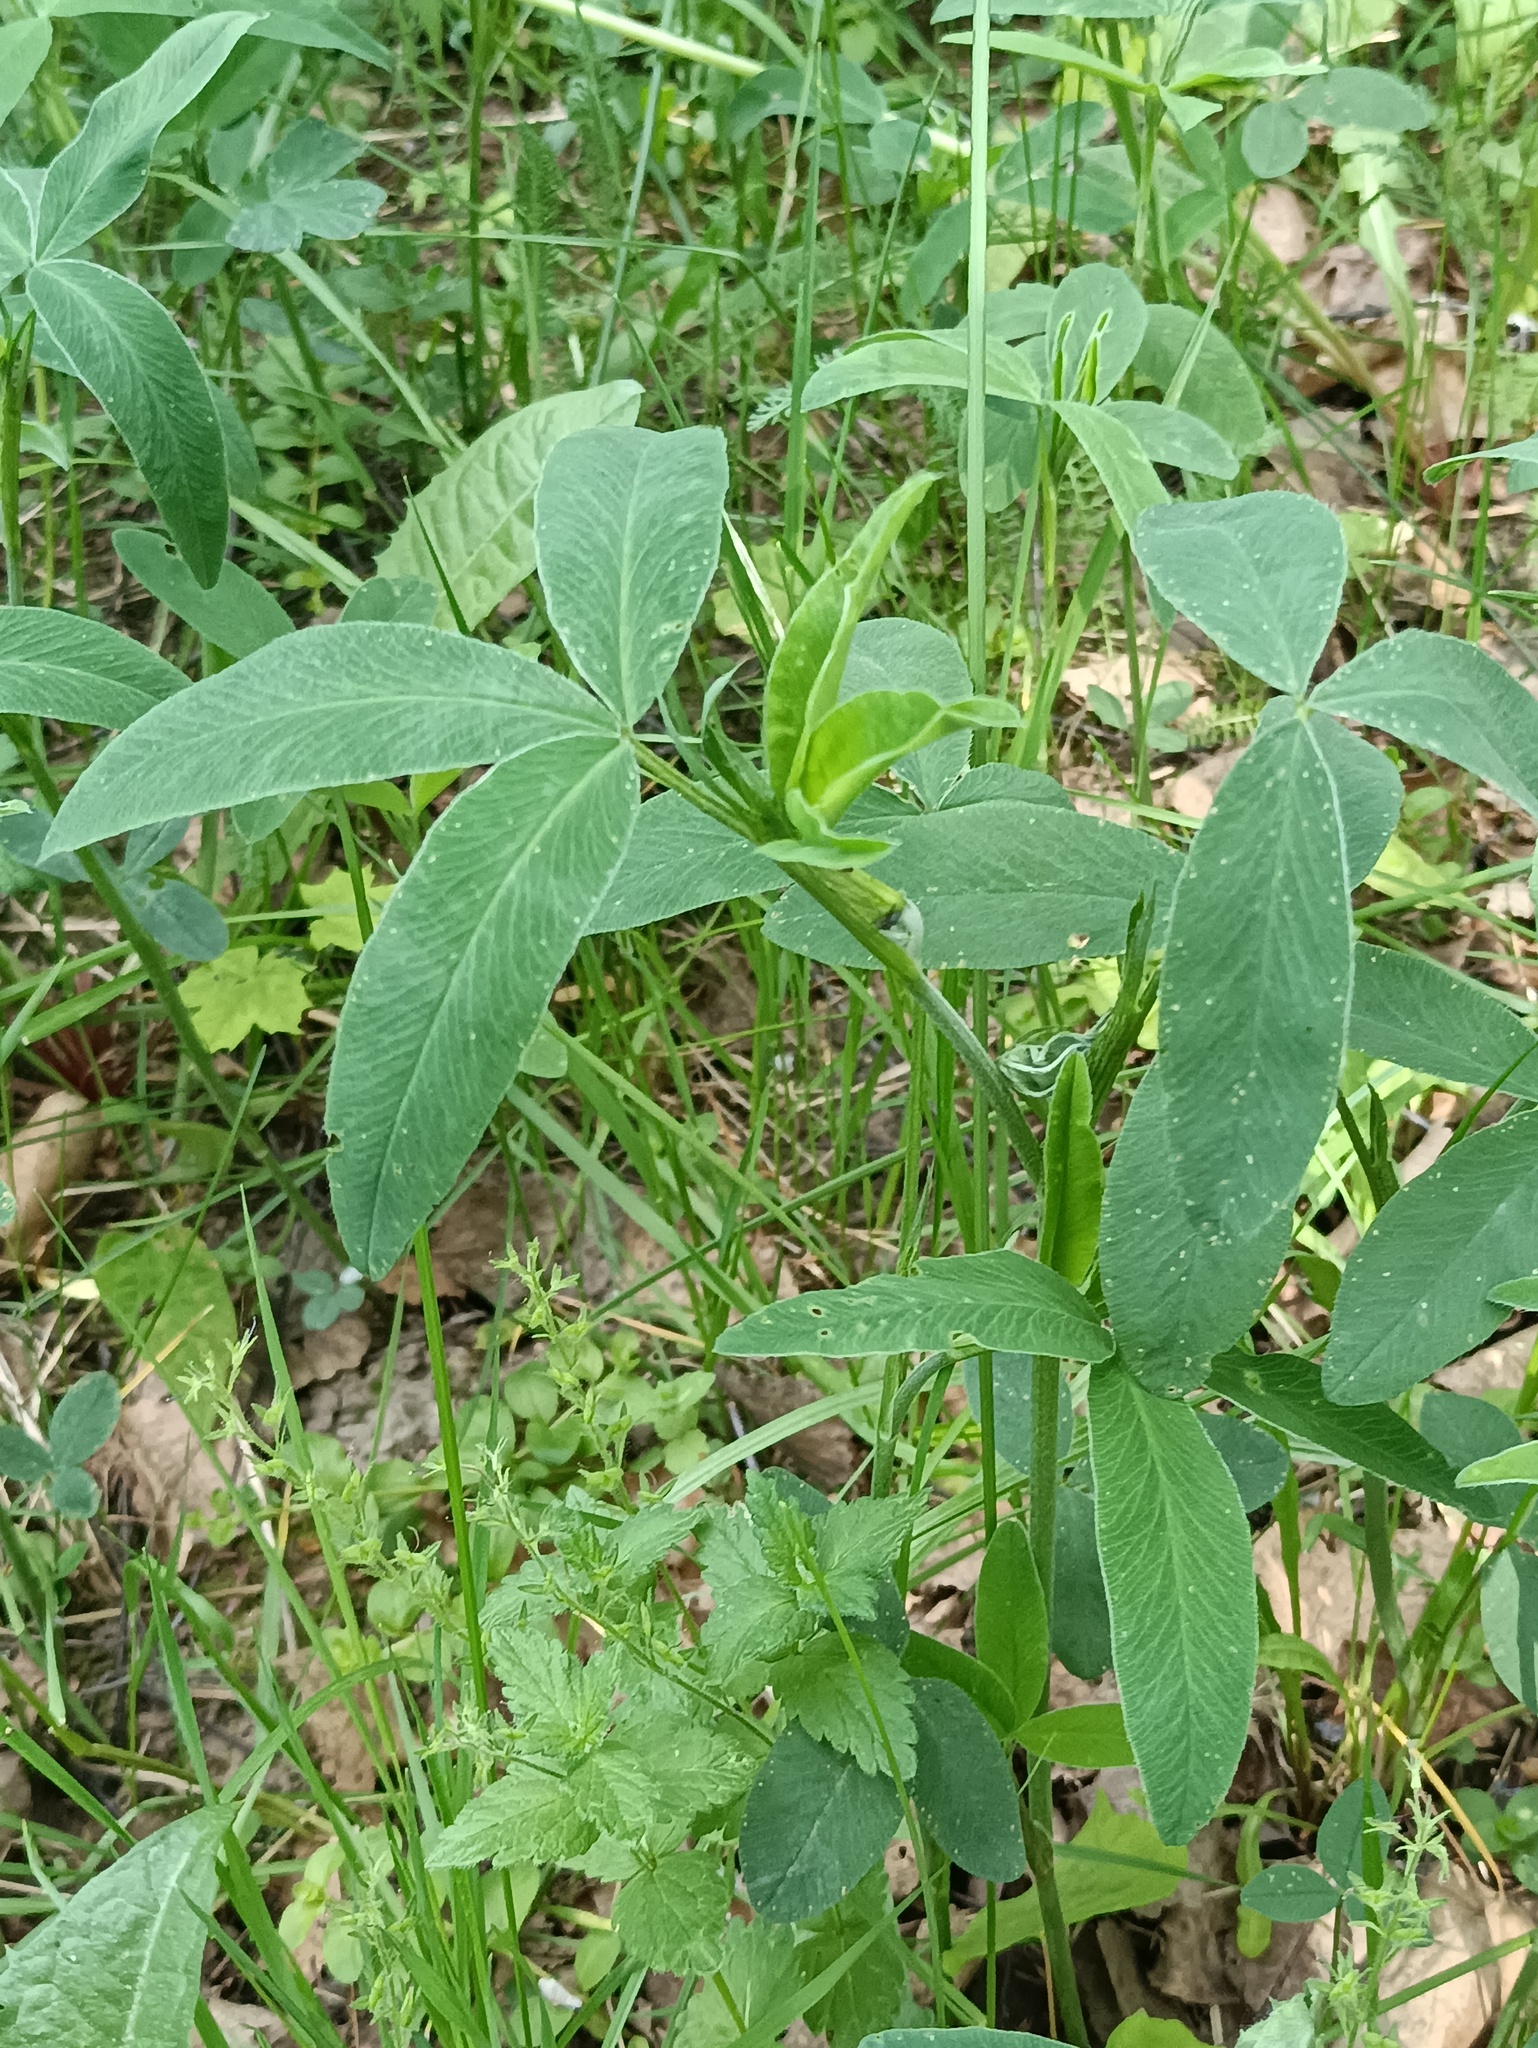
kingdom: Plantae
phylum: Tracheophyta
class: Magnoliopsida
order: Fabales
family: Fabaceae
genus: Trifolium
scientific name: Trifolium medium
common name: Zigzag clover
